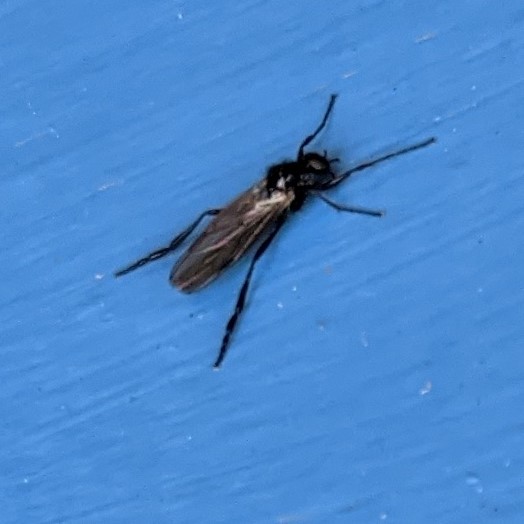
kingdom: Animalia
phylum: Arthropoda
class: Insecta
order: Diptera
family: Bibionidae
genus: Bibio
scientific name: Bibio slossonae
